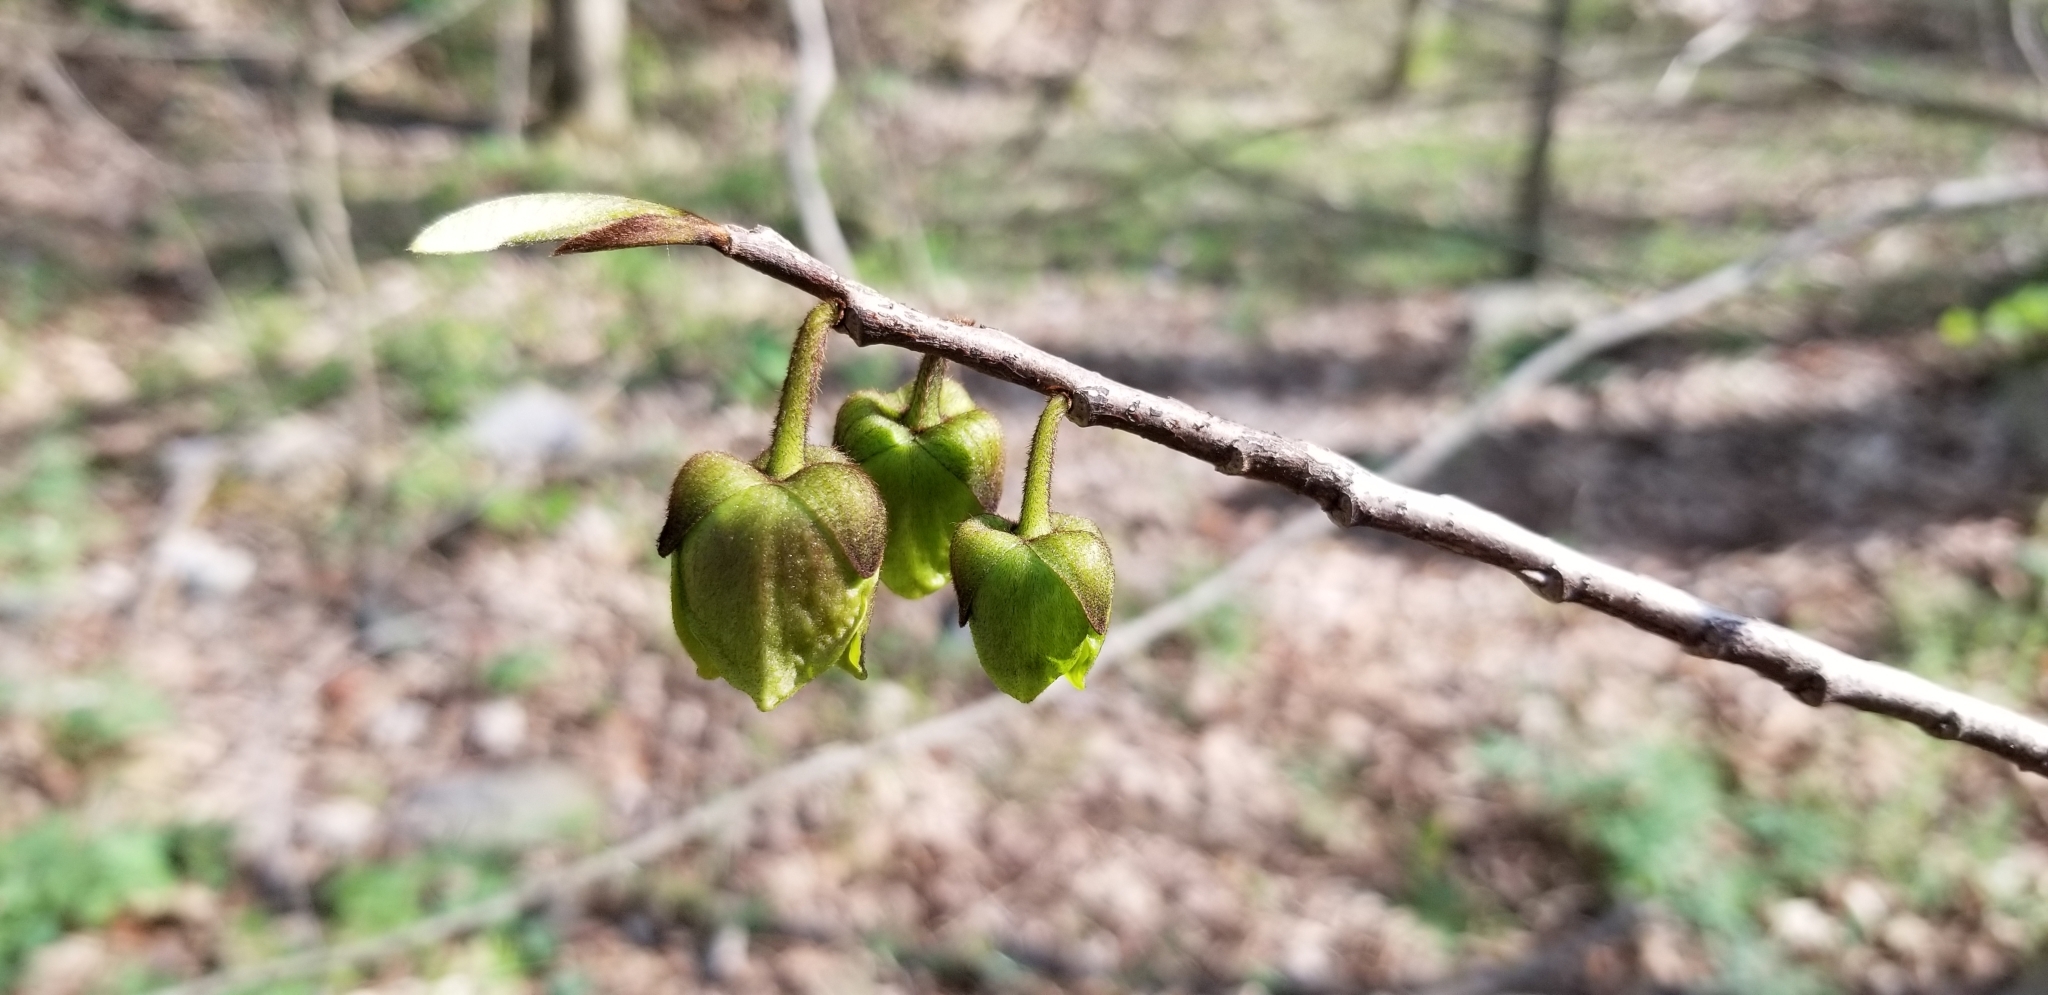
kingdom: Plantae
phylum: Tracheophyta
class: Magnoliopsida
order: Magnoliales
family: Annonaceae
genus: Asimina
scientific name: Asimina triloba
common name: Dog-banana
